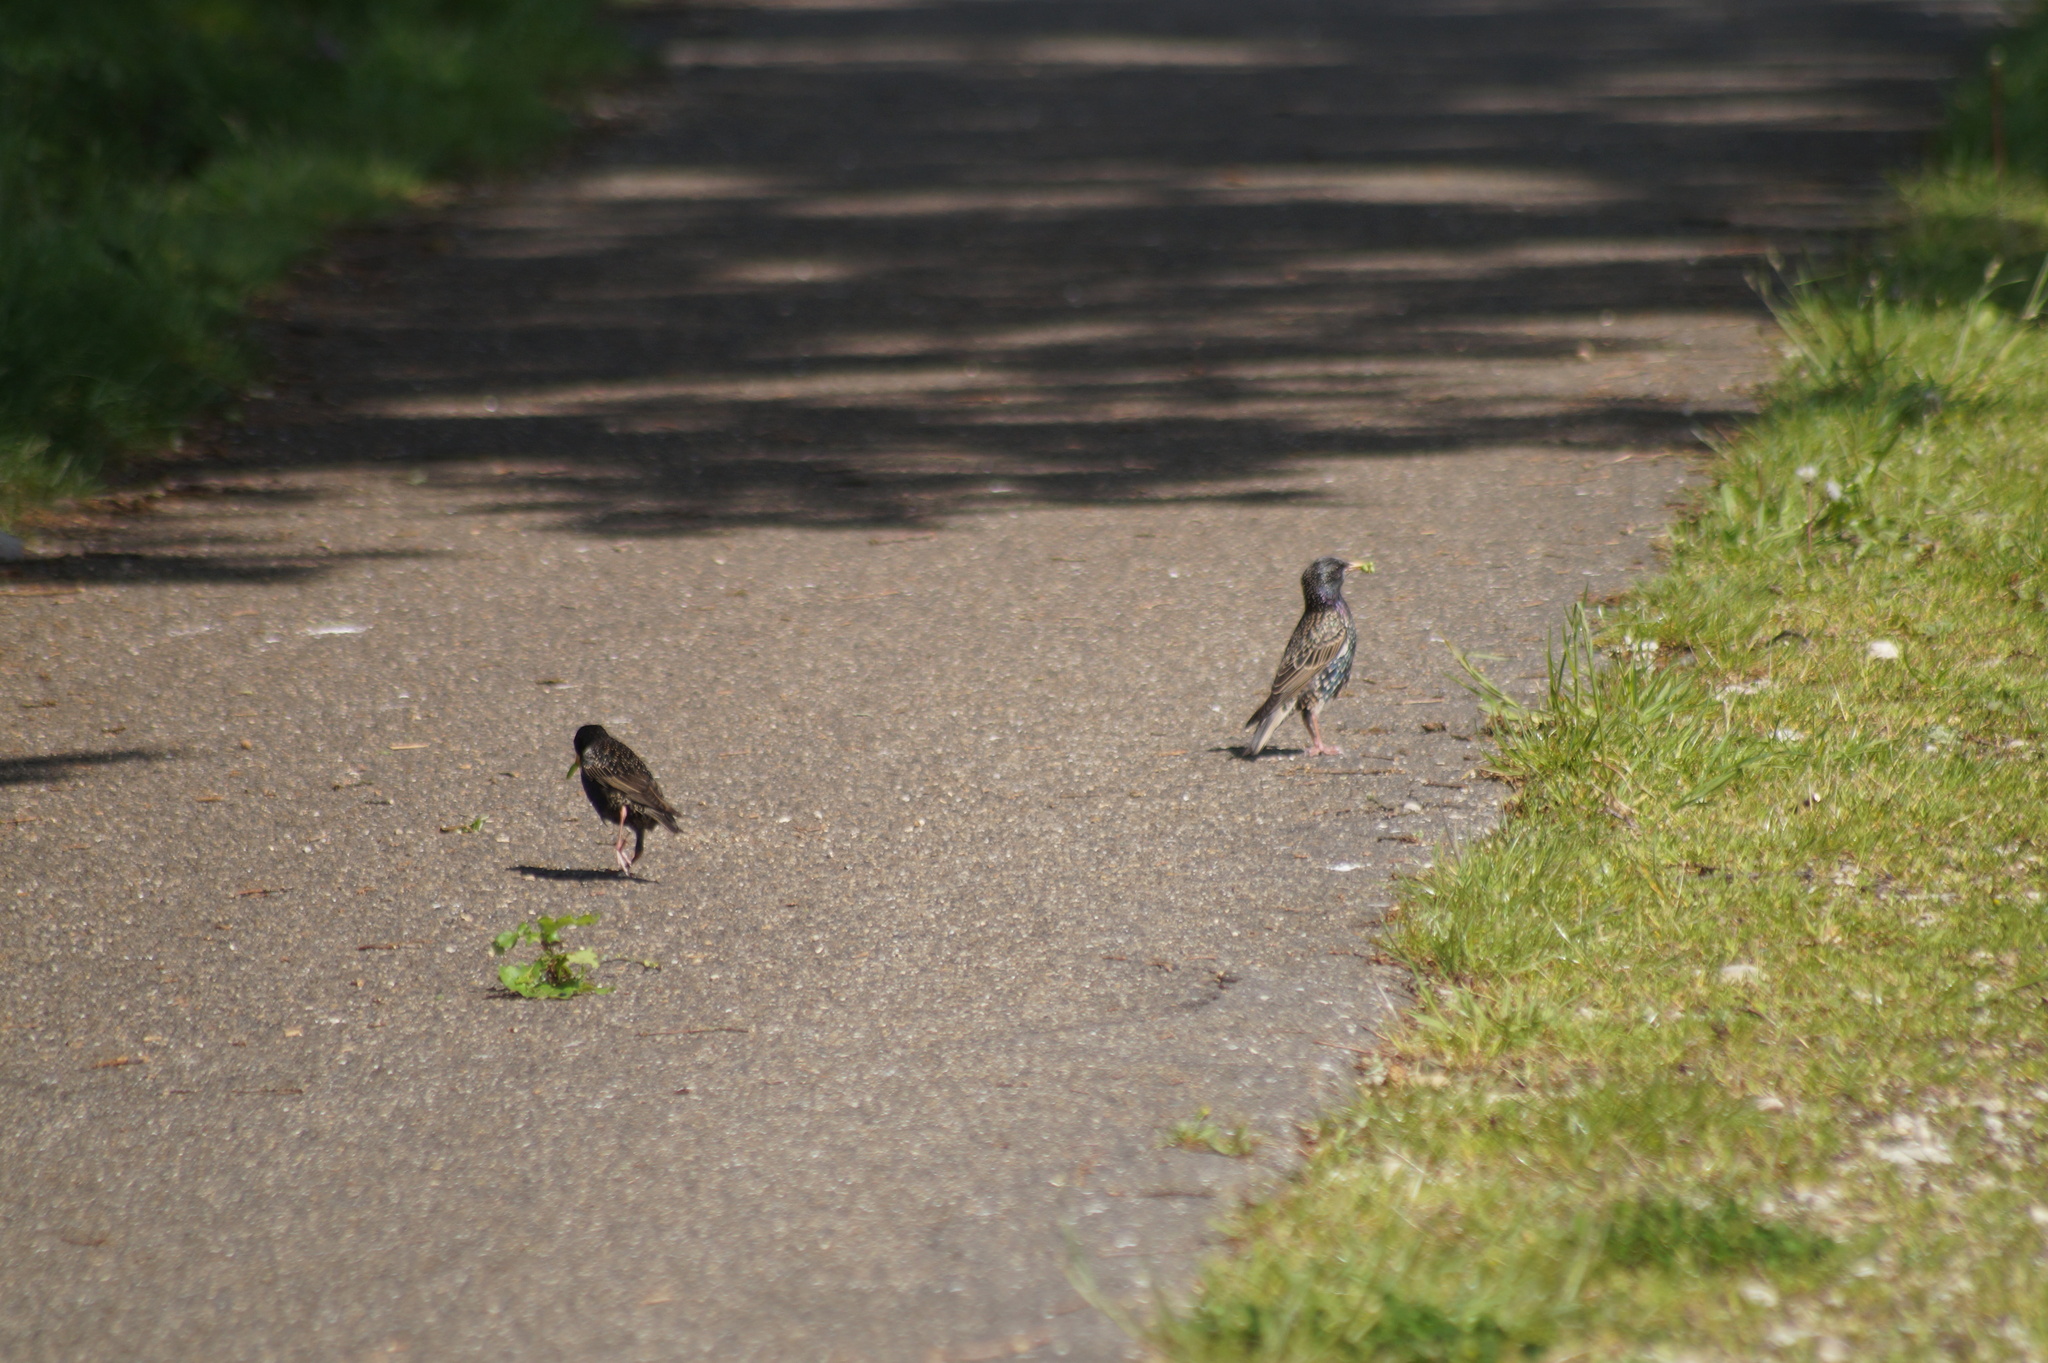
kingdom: Animalia
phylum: Chordata
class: Aves
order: Passeriformes
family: Sturnidae
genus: Sturnus
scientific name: Sturnus vulgaris
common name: Common starling
